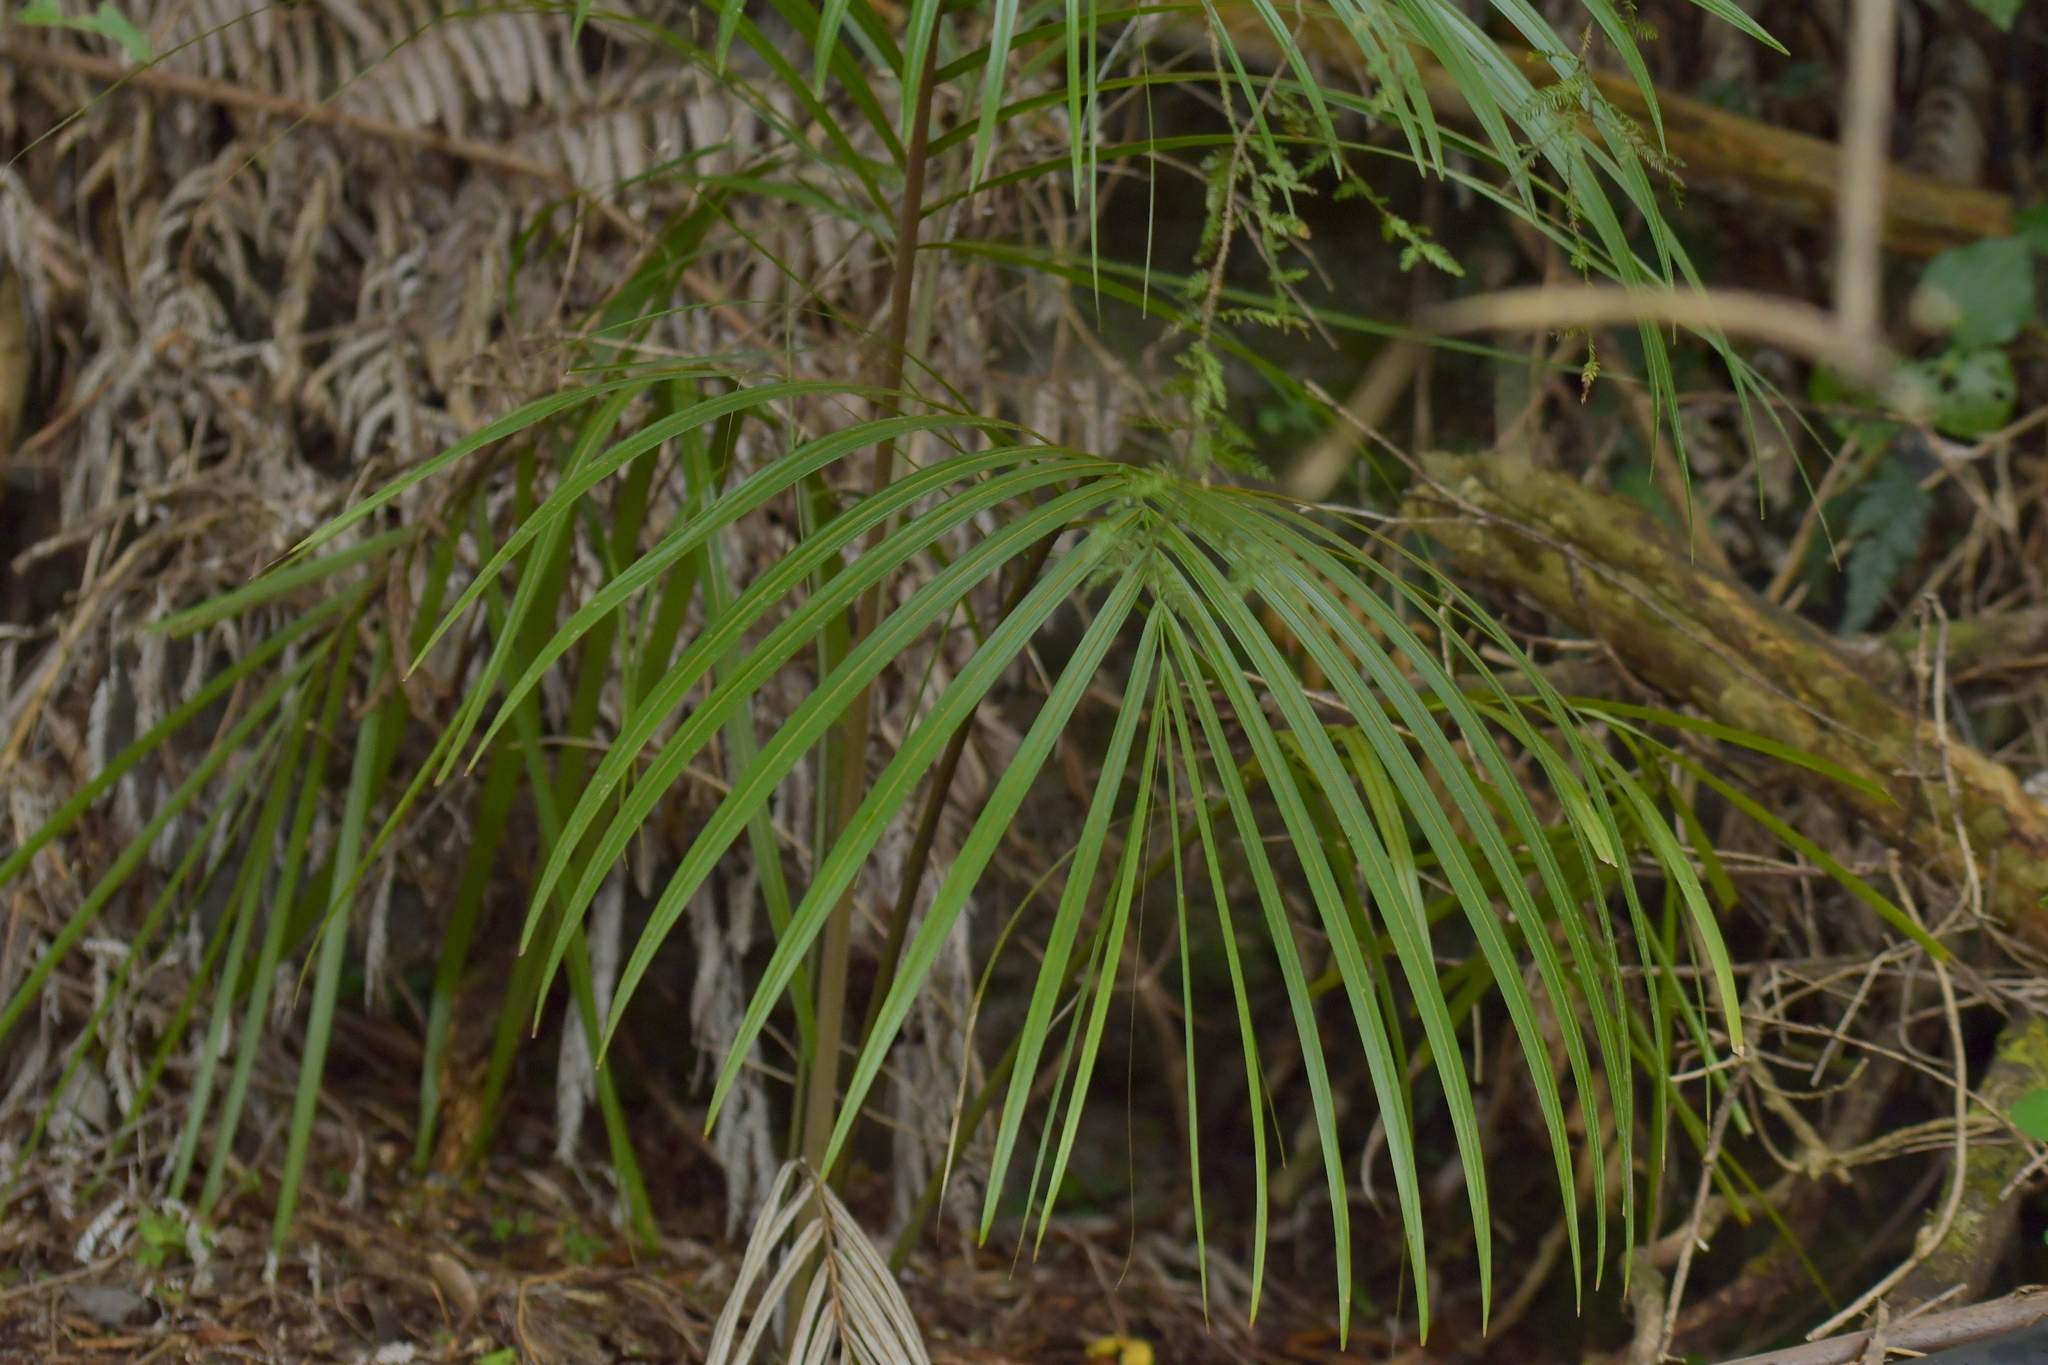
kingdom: Plantae
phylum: Tracheophyta
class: Liliopsida
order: Arecales
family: Arecaceae
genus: Rhopalostylis
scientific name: Rhopalostylis sapida
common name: Feather-duster palm
